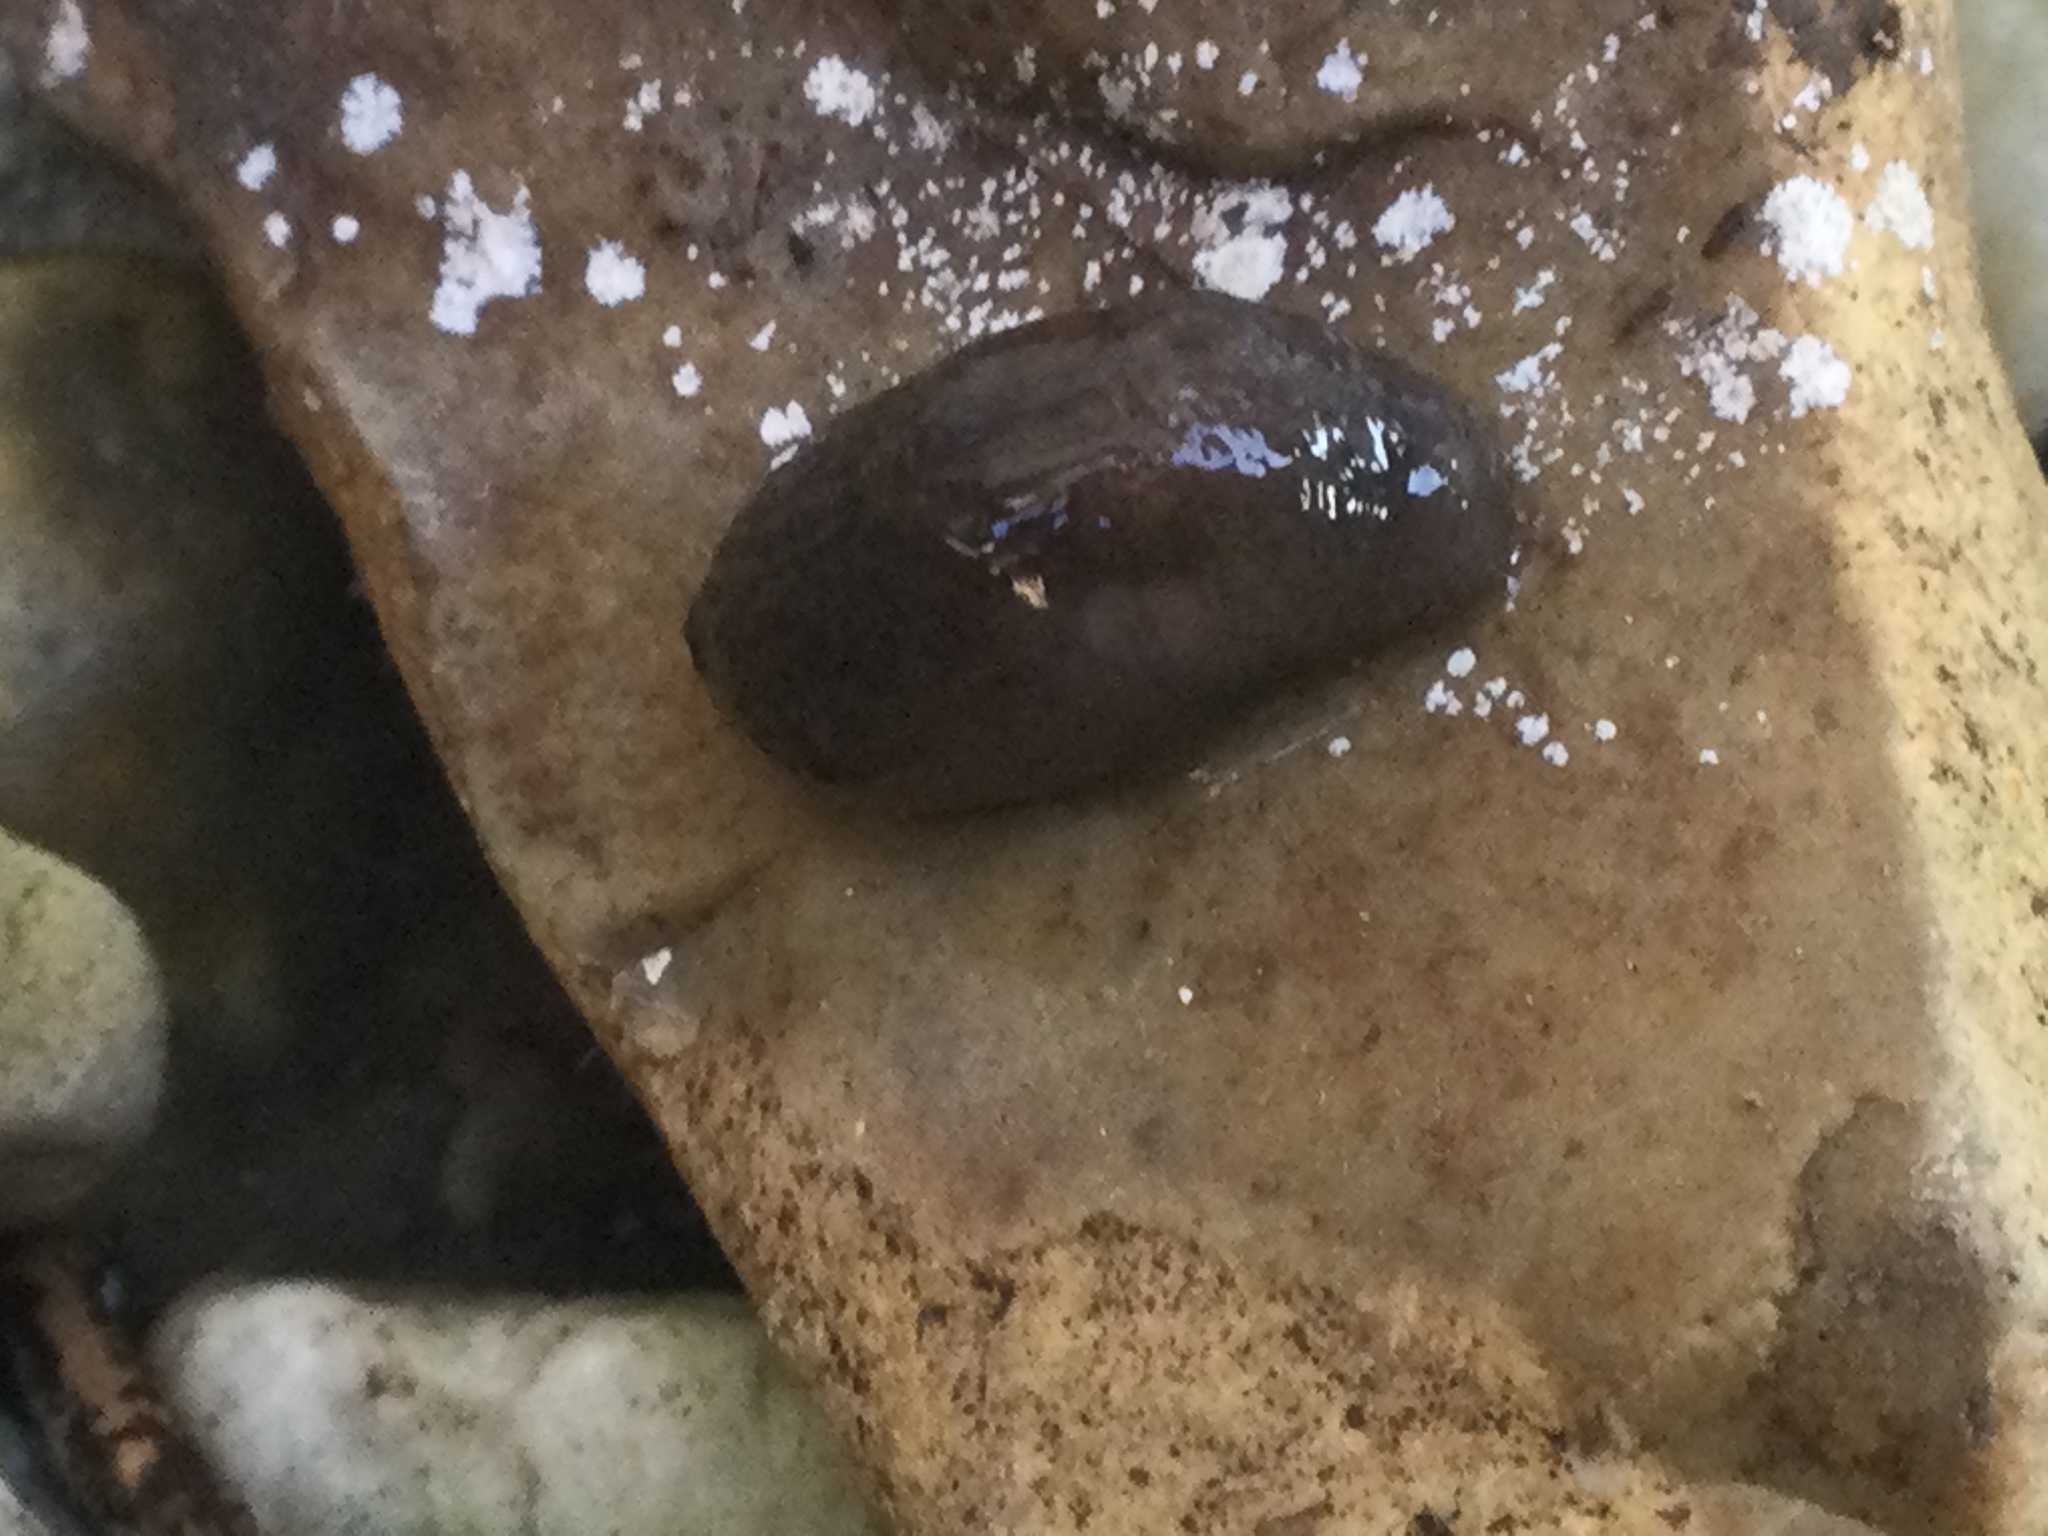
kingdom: Animalia
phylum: Mollusca
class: Gastropoda
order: Stylommatophora
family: Agriolimacidae
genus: Deroceras
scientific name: Deroceras laeve
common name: Marsh slug
